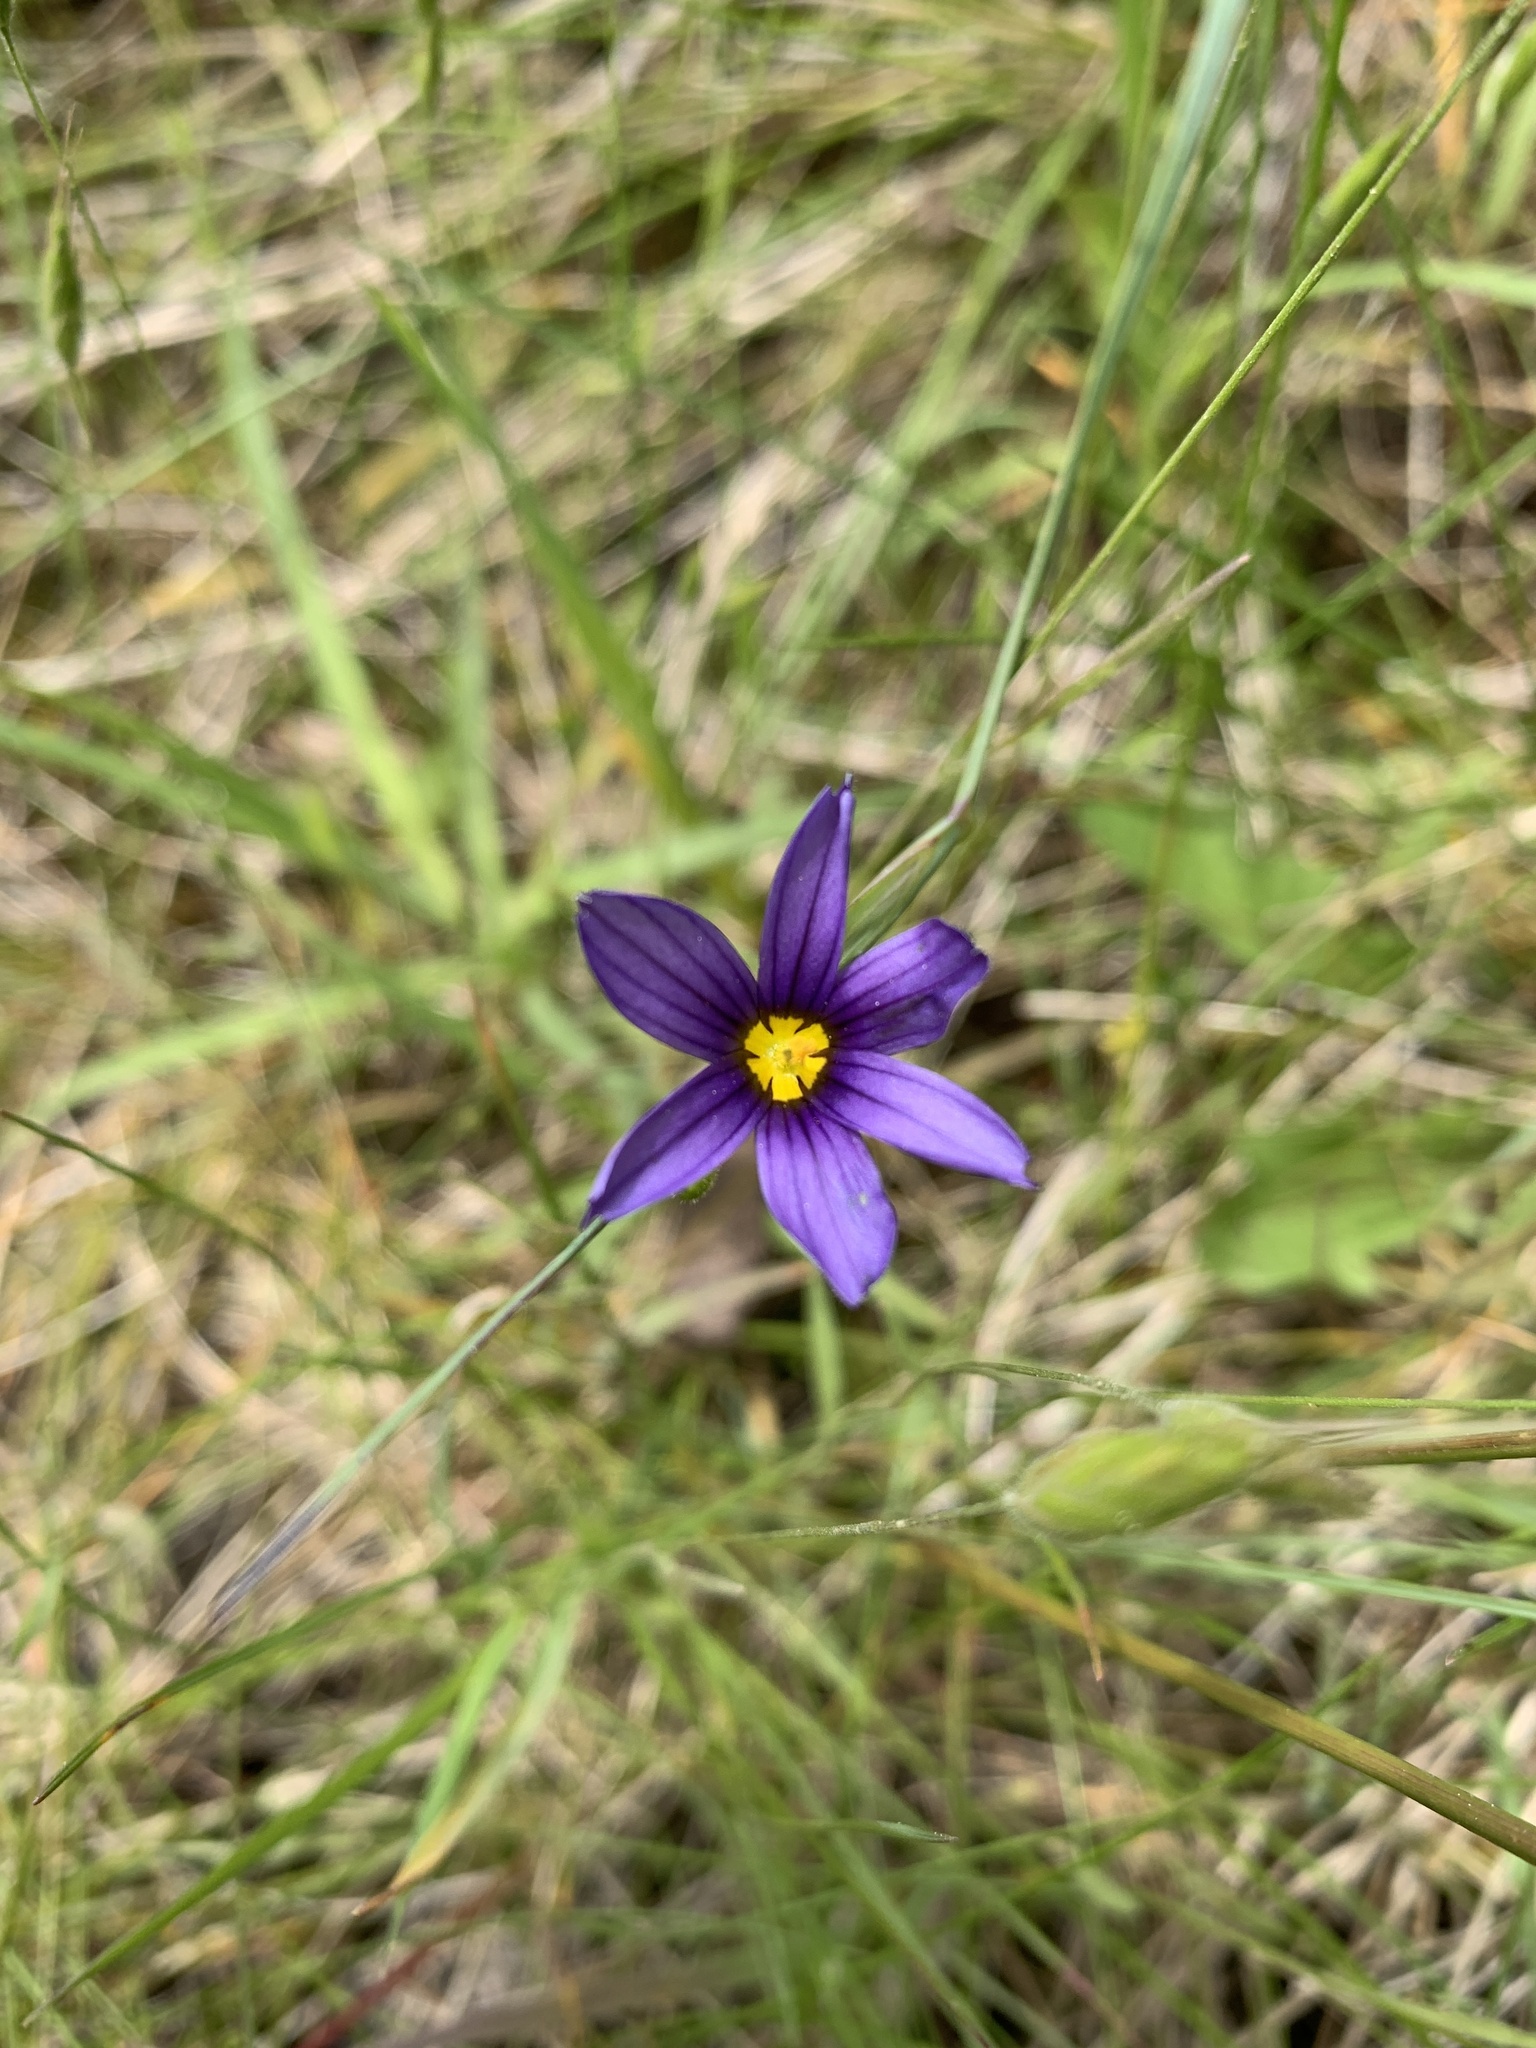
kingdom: Plantae
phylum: Tracheophyta
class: Liliopsida
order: Asparagales
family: Iridaceae
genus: Sisyrinchium
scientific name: Sisyrinchium littorale
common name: Alaska blue-eyed-grass
